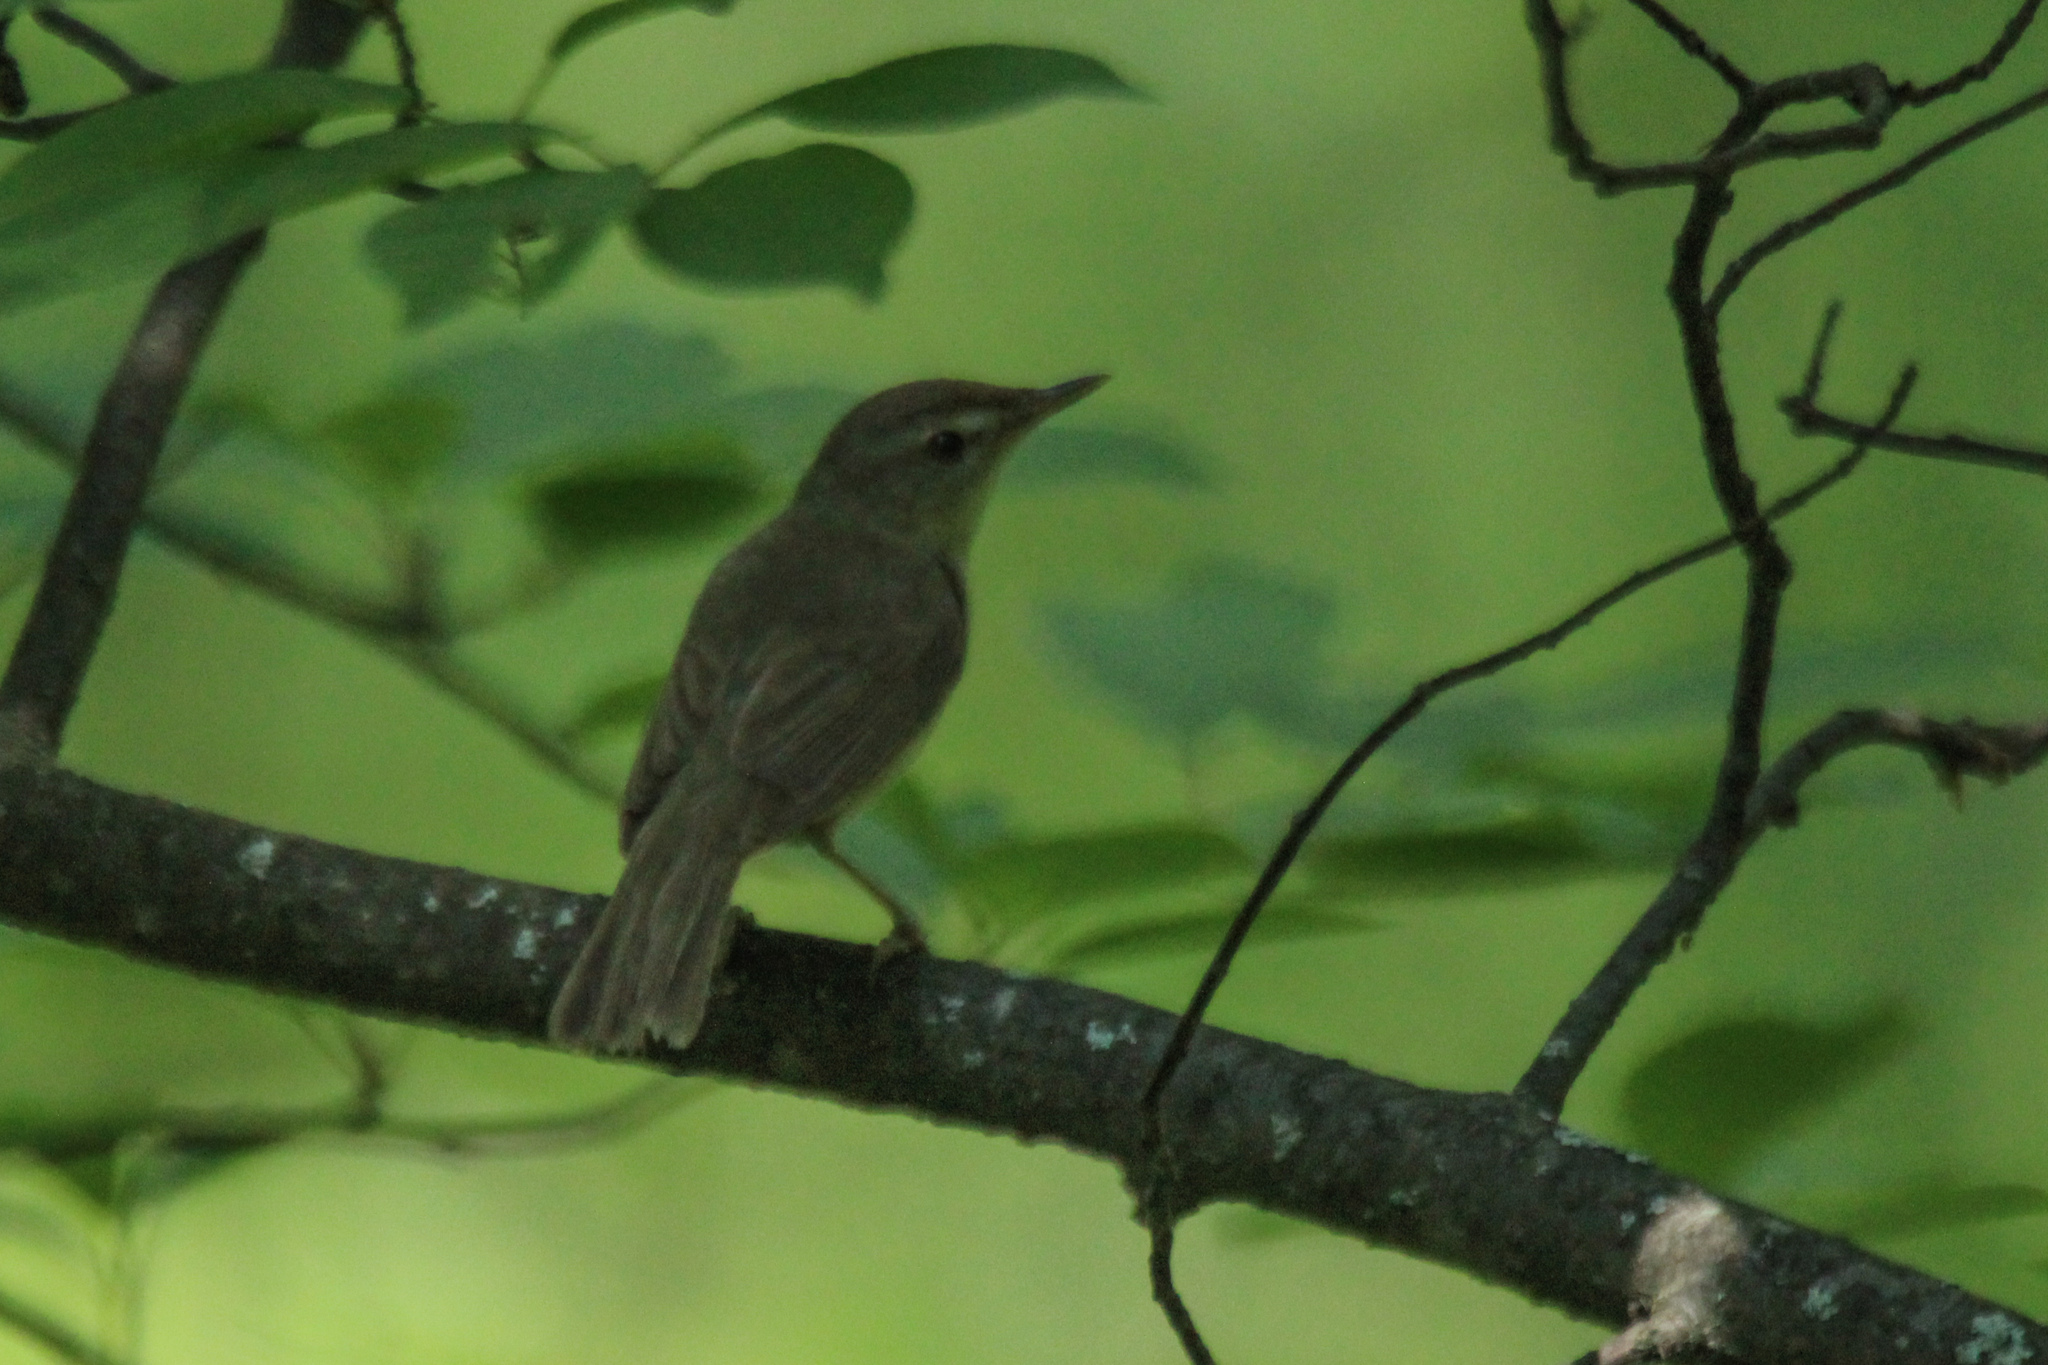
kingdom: Animalia
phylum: Chordata
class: Aves
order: Passeriformes
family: Acrocephalidae
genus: Acrocephalus
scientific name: Acrocephalus dumetorum
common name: Blyth's reed warbler
